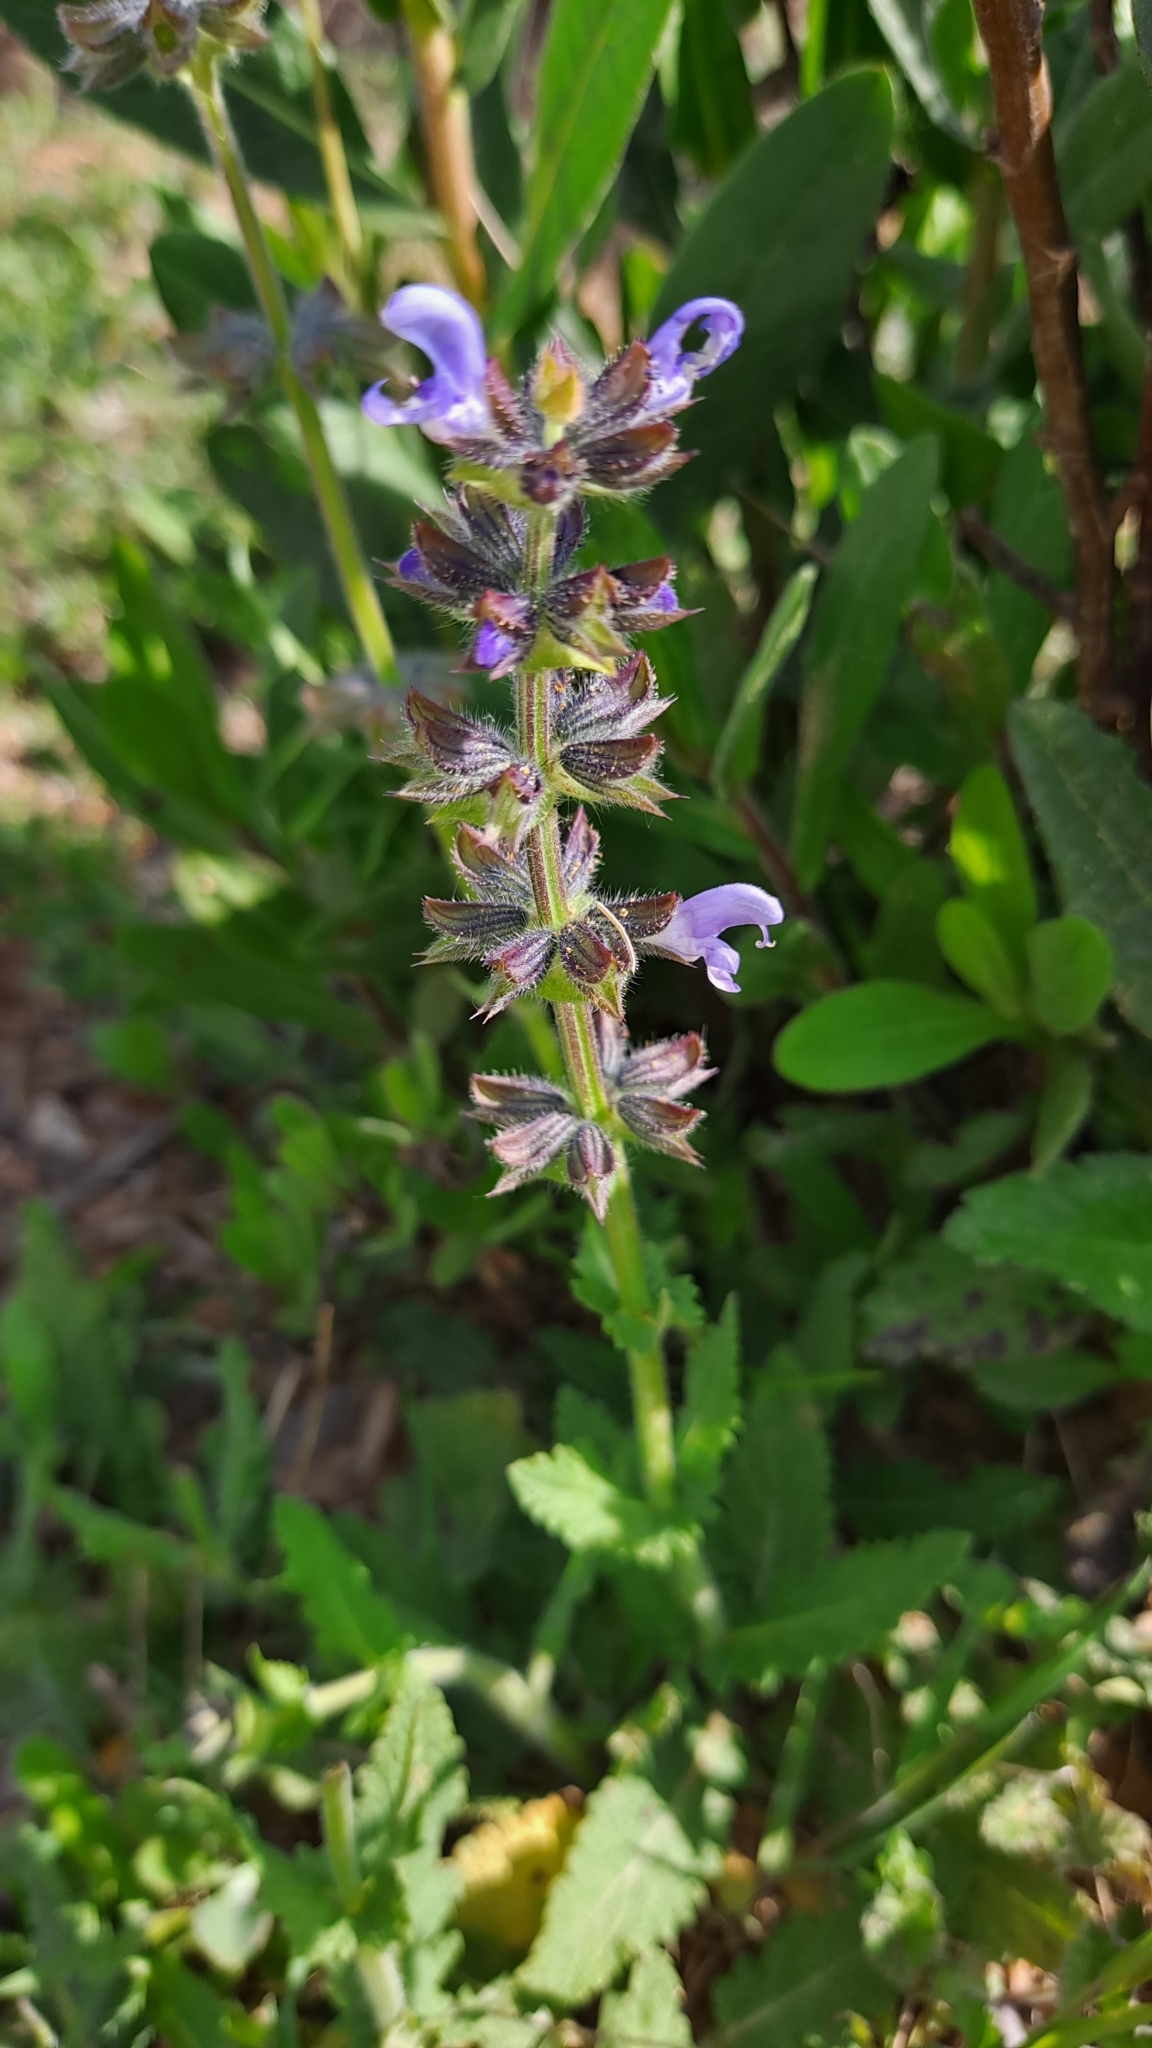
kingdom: Plantae
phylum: Tracheophyta
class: Magnoliopsida
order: Lamiales
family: Lamiaceae
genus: Salvia
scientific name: Salvia verbenaca
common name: Wild clary
